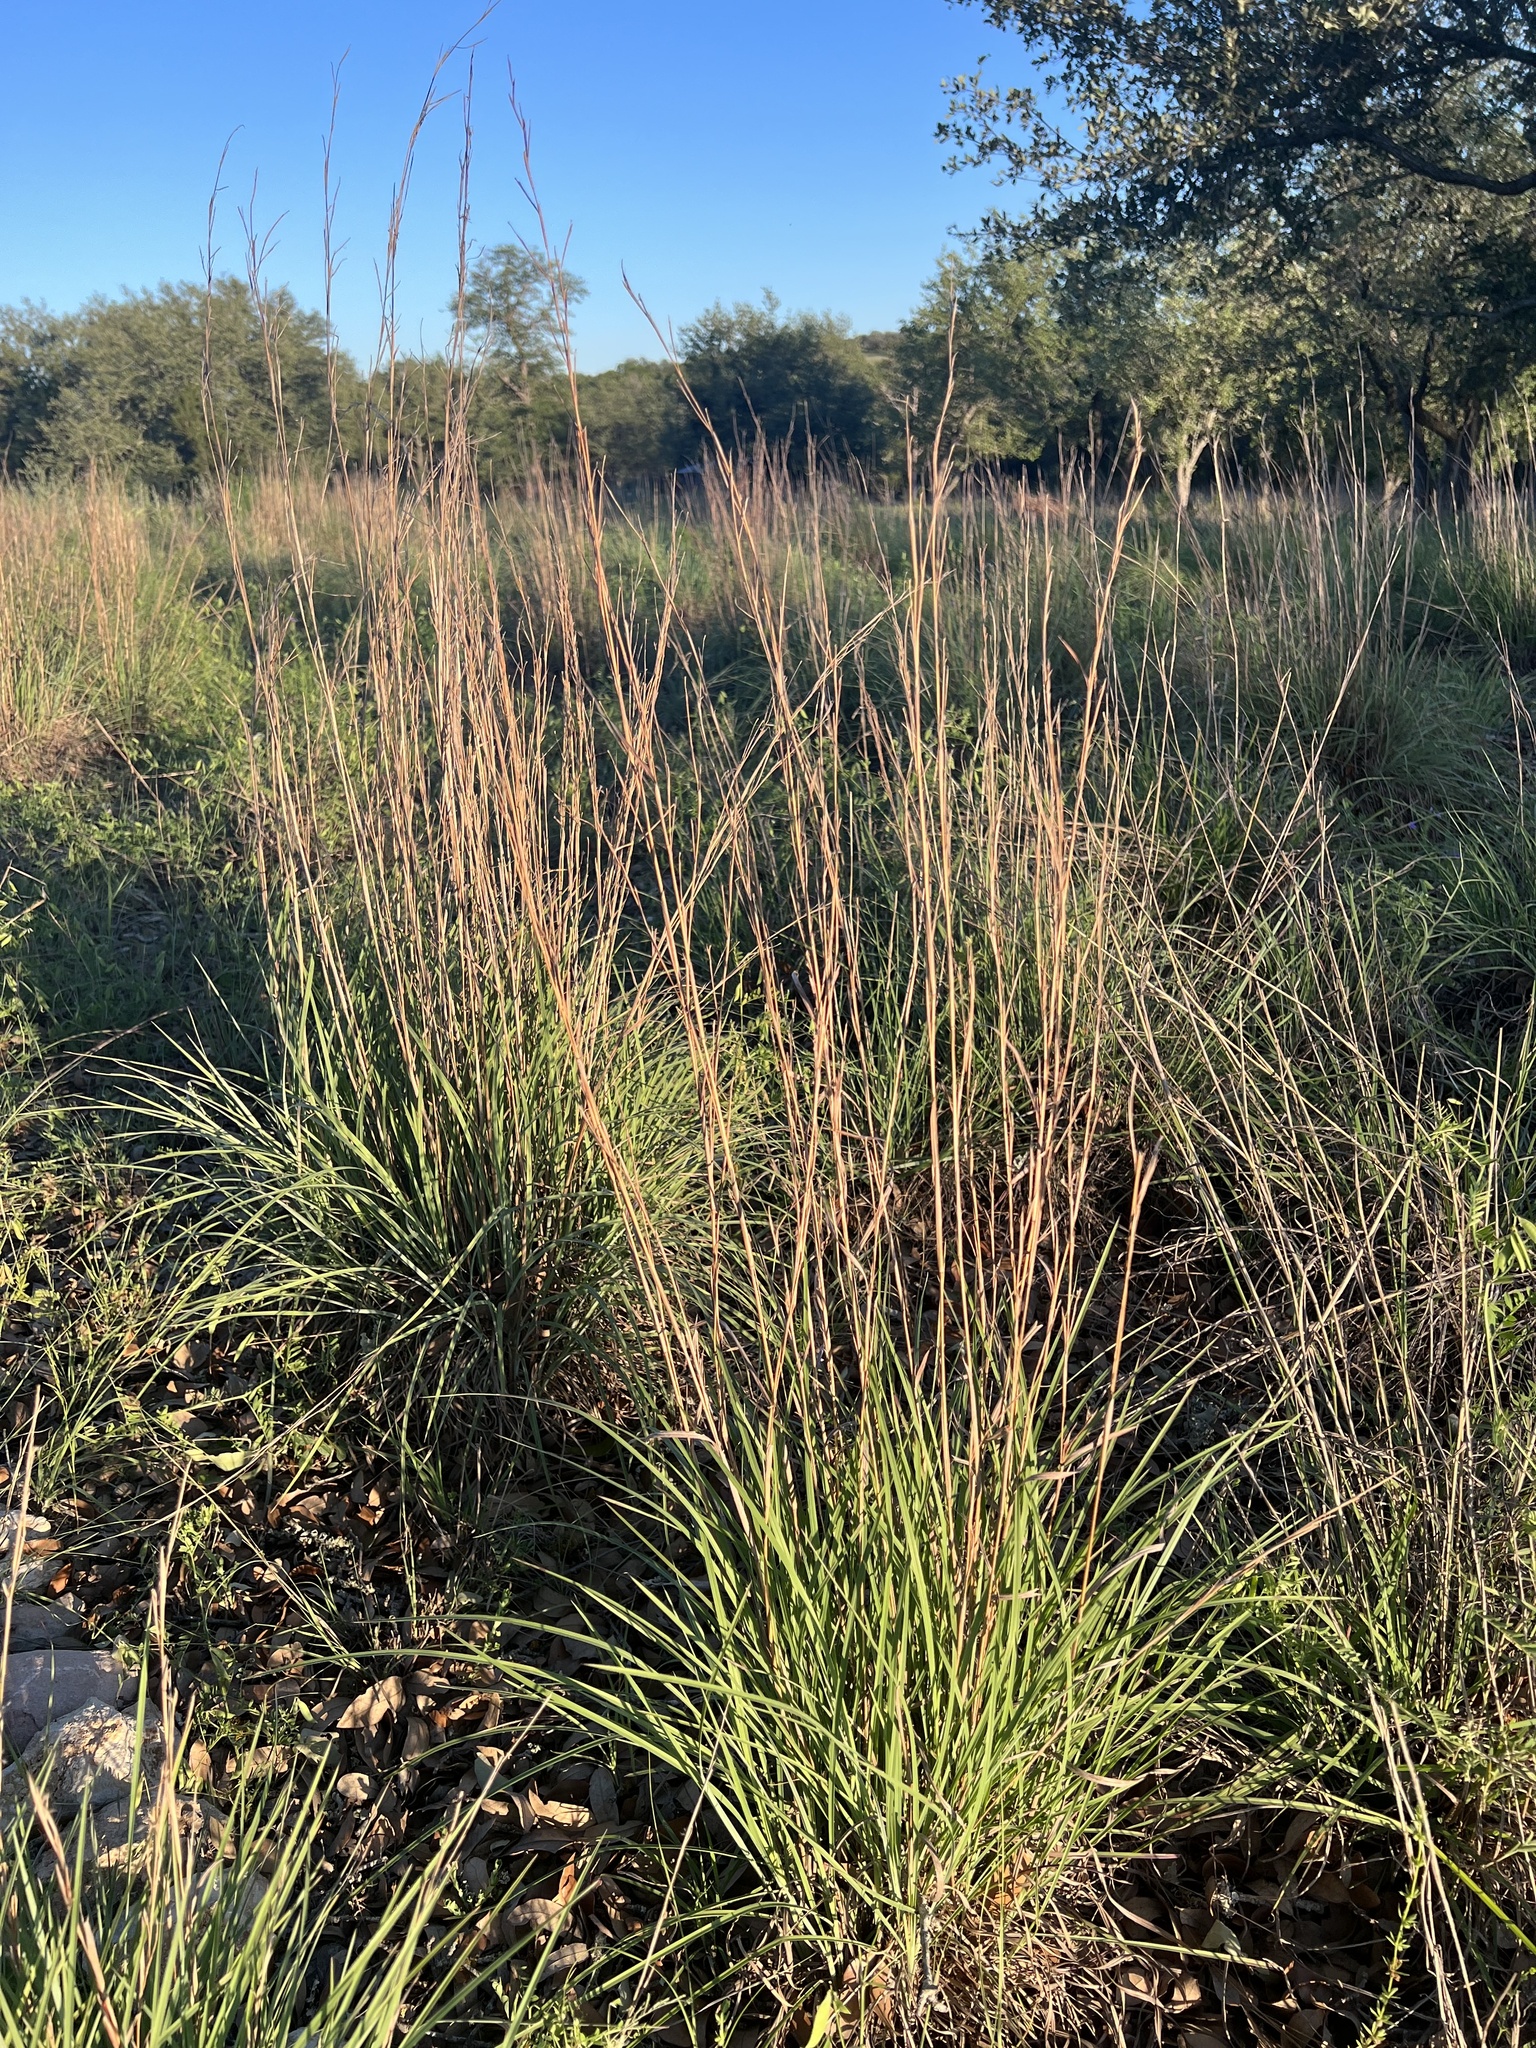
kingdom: Plantae
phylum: Tracheophyta
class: Liliopsida
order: Poales
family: Poaceae
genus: Schizachyrium
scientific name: Schizachyrium scoparium
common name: Little bluestem
